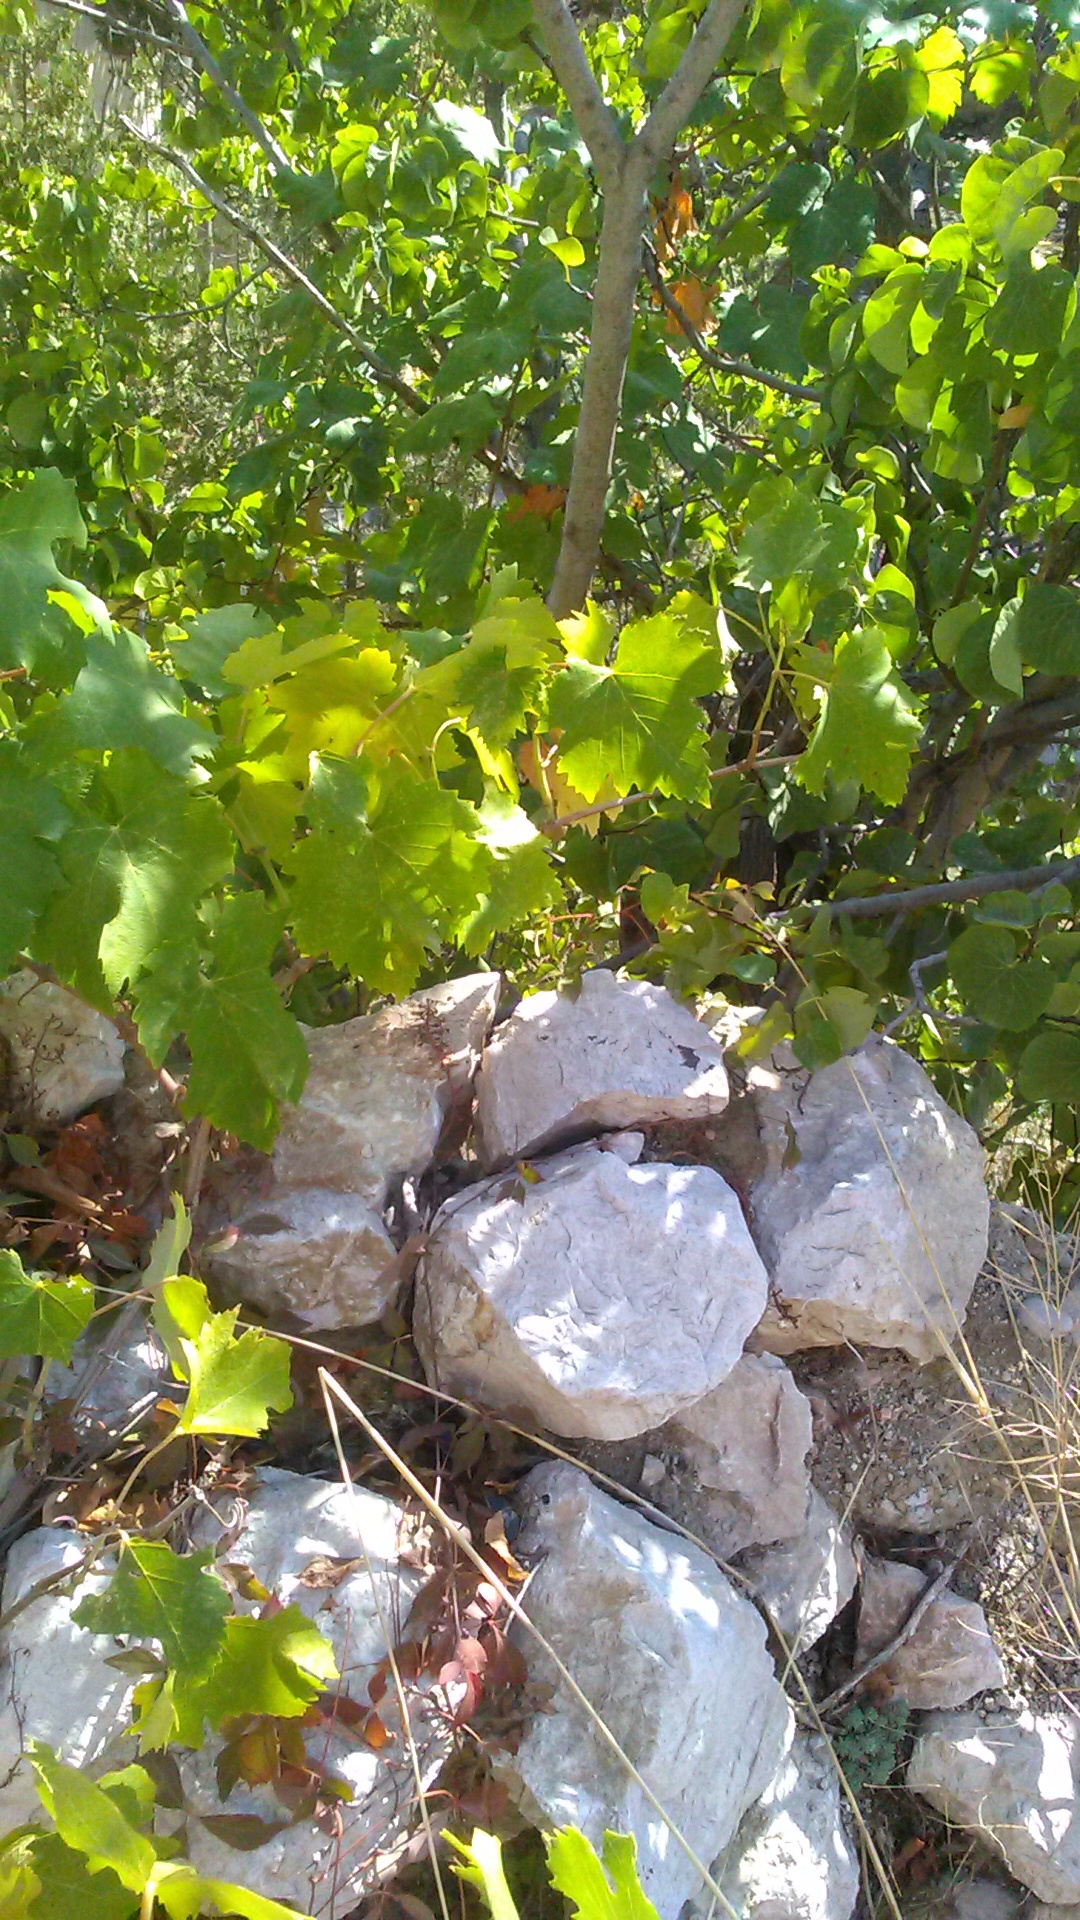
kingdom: Plantae
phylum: Tracheophyta
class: Magnoliopsida
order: Vitales
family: Vitaceae
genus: Vitis
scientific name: Vitis vinifera
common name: Grape-vine
